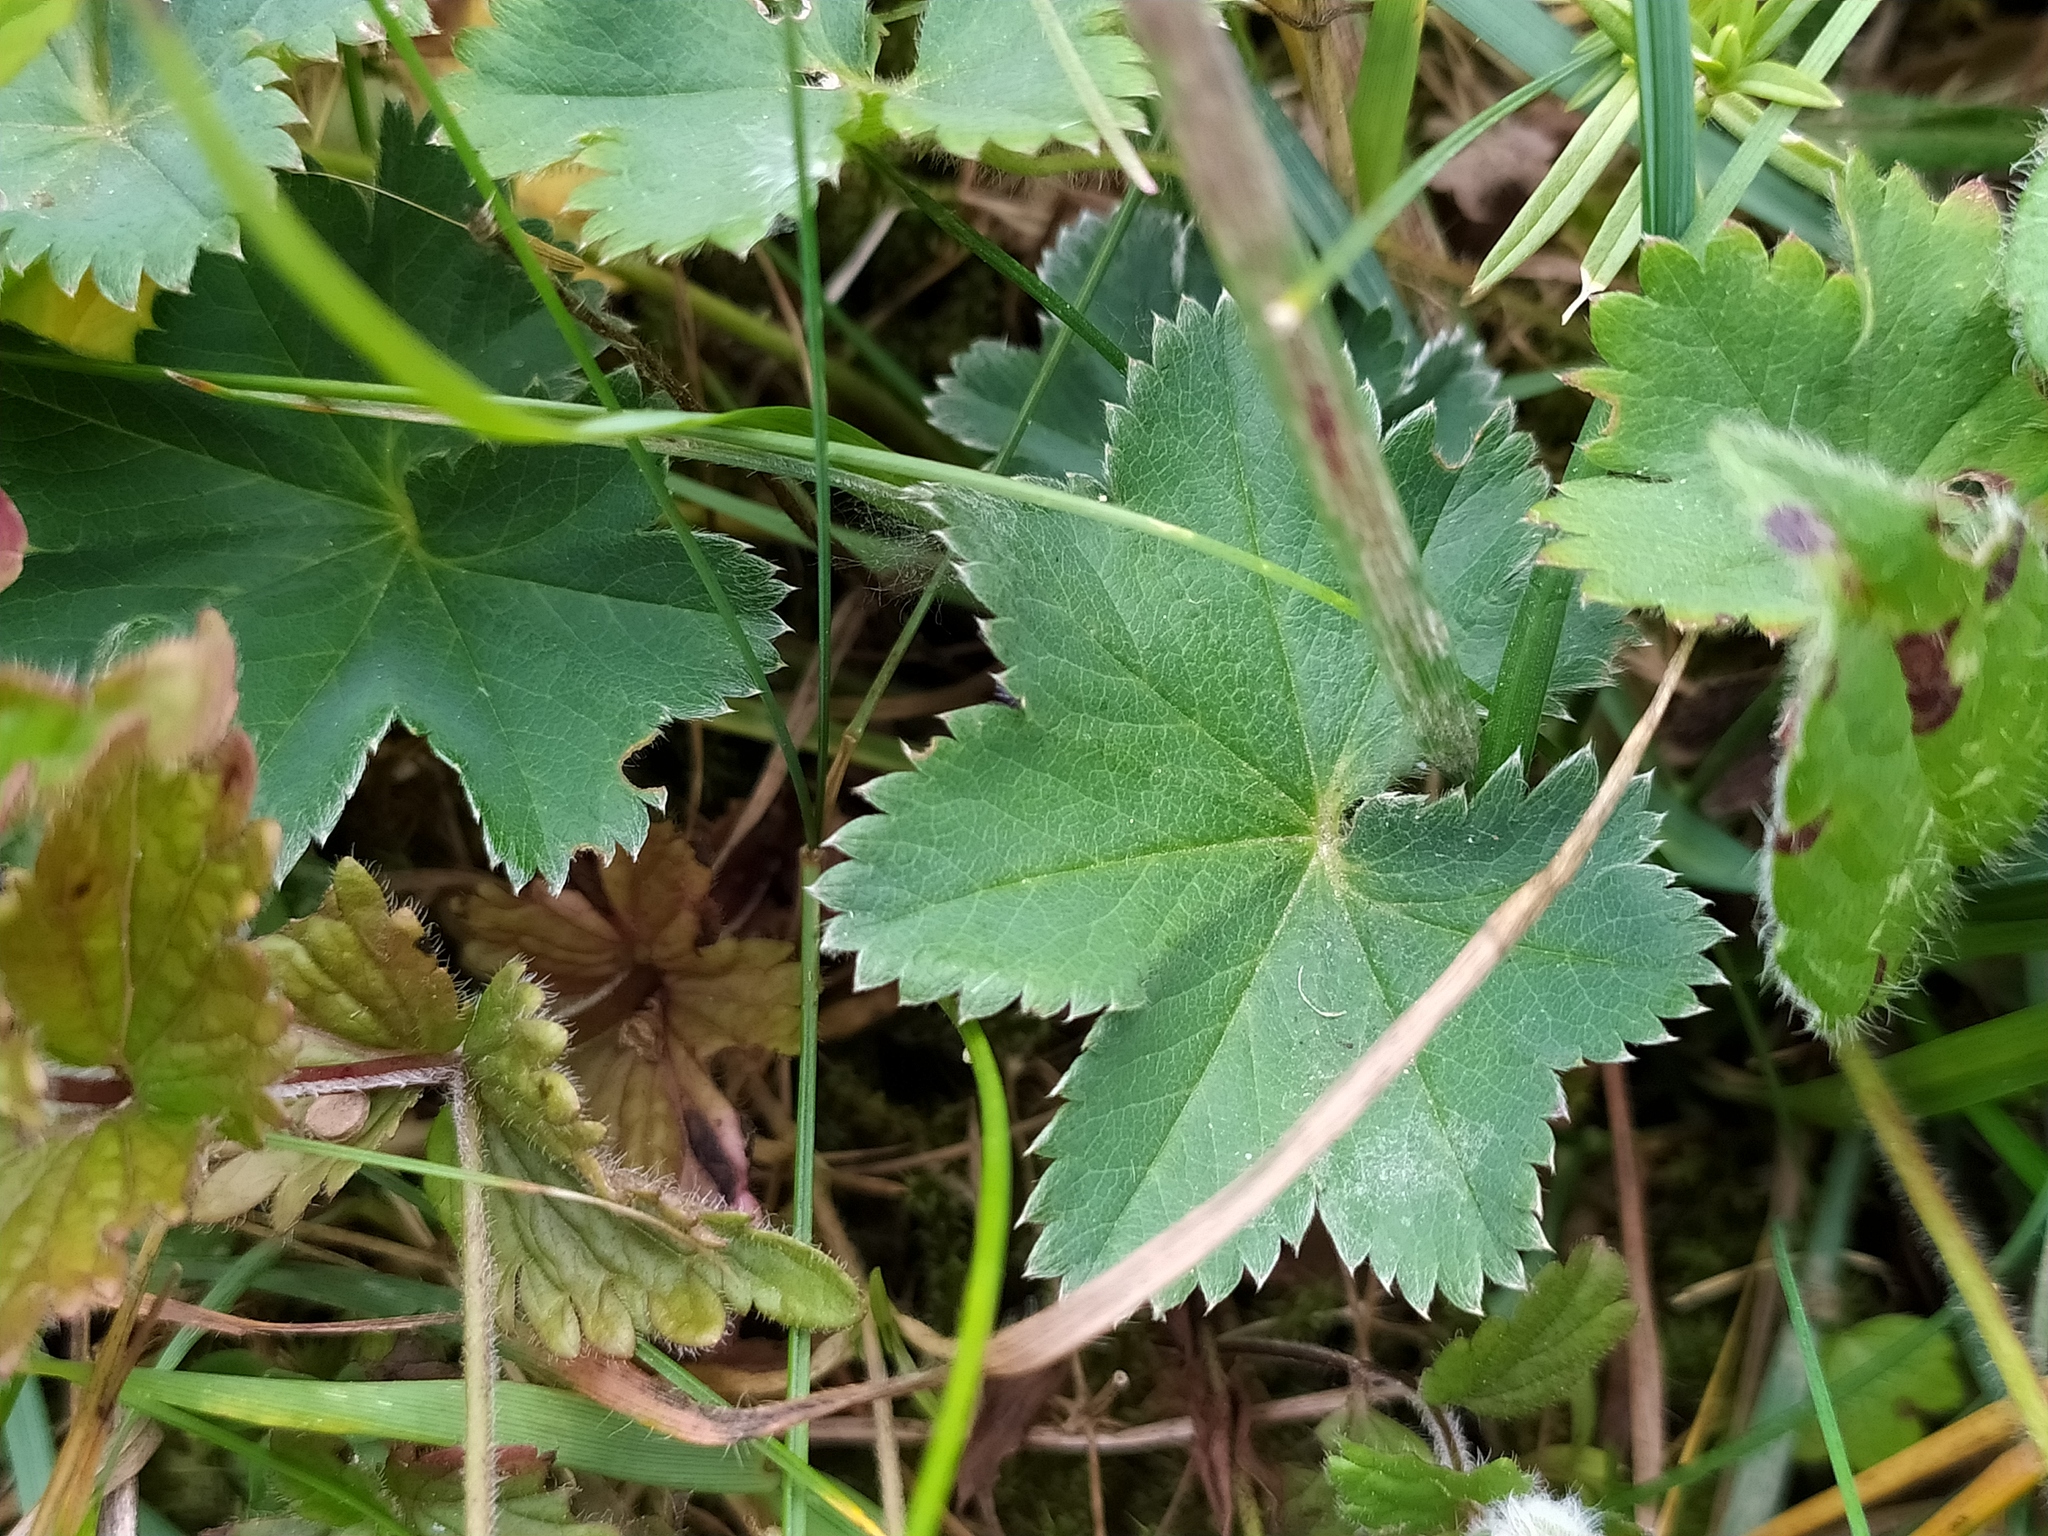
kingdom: Plantae
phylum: Tracheophyta
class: Magnoliopsida
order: Rosales
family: Rosaceae
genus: Alchemilla
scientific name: Alchemilla glaucescens
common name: Silky lady's mantle
